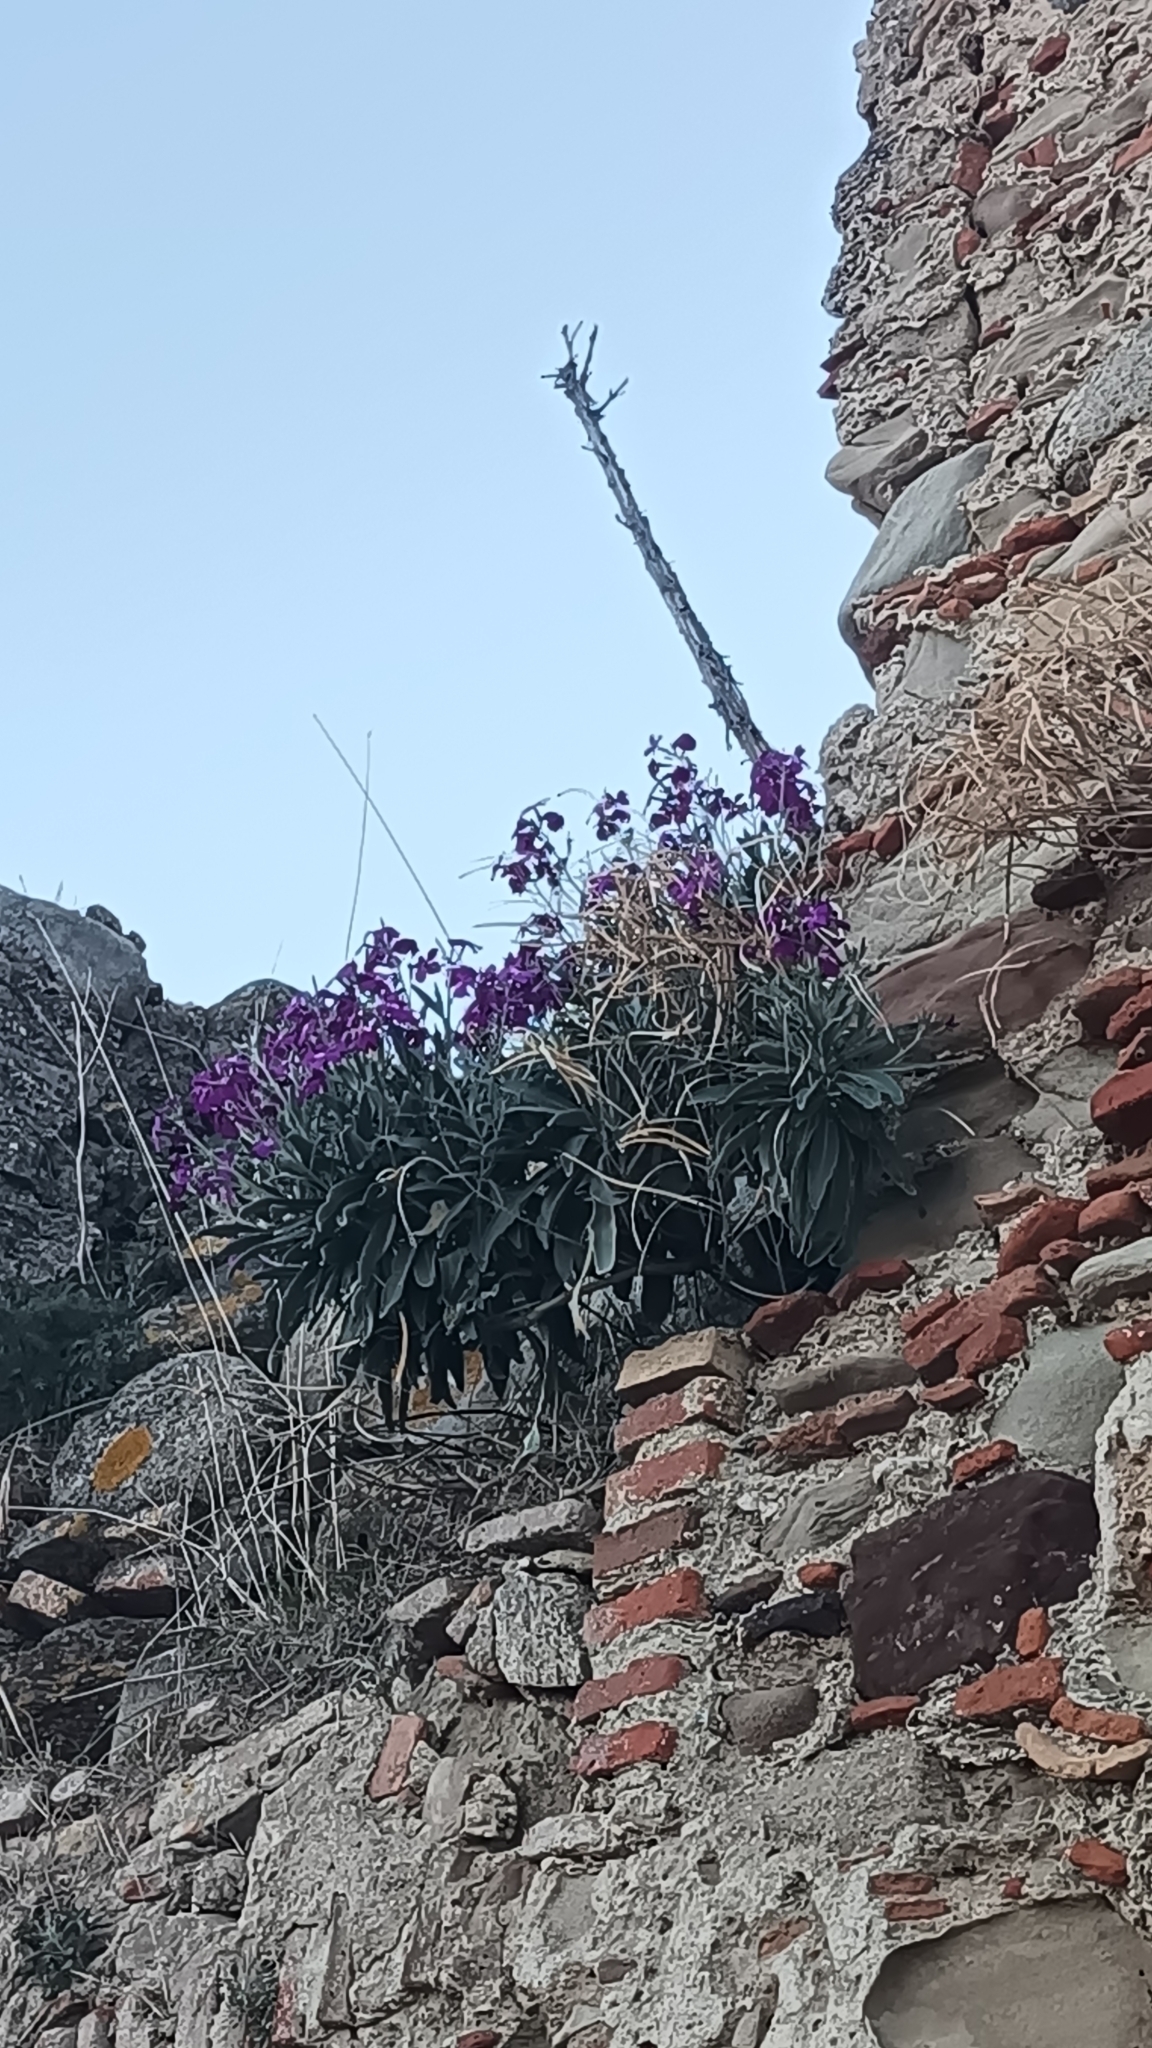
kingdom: Plantae
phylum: Tracheophyta
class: Magnoliopsida
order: Brassicales
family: Brassicaceae
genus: Matthiola
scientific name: Matthiola incana
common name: Hoary stock
